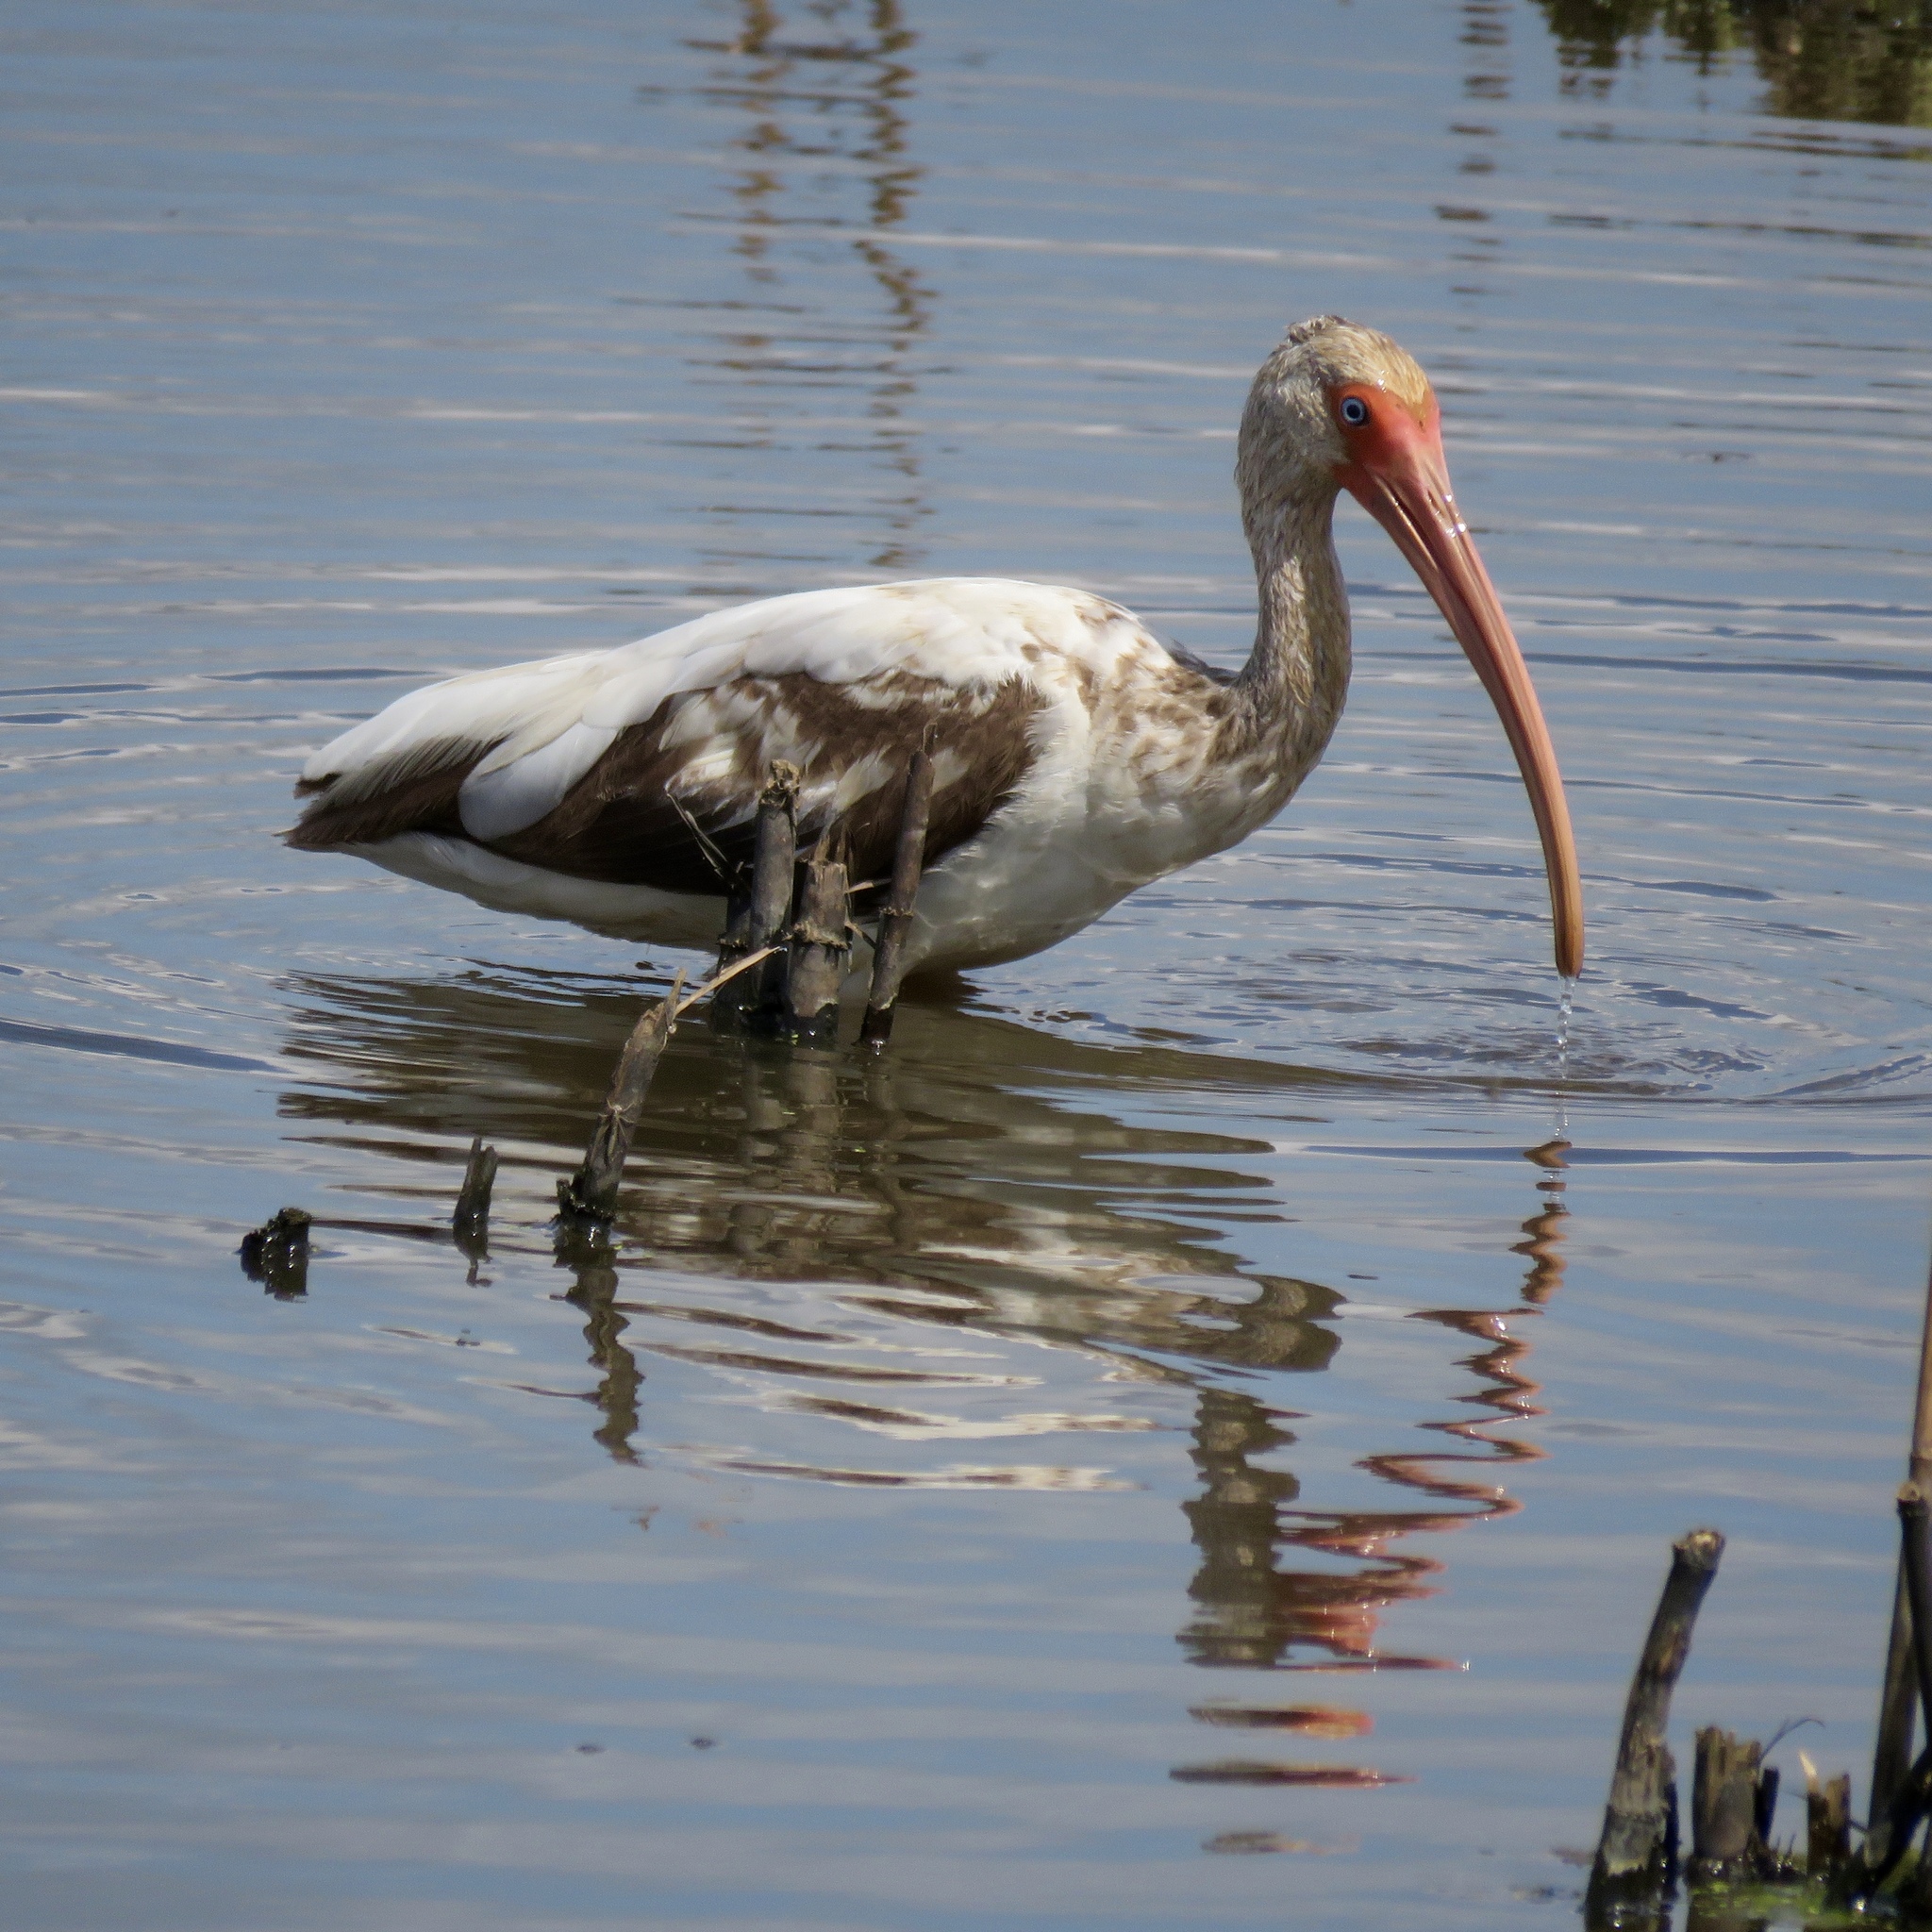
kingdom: Animalia
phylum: Chordata
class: Aves
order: Pelecaniformes
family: Threskiornithidae
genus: Eudocimus
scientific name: Eudocimus albus
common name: White ibis
